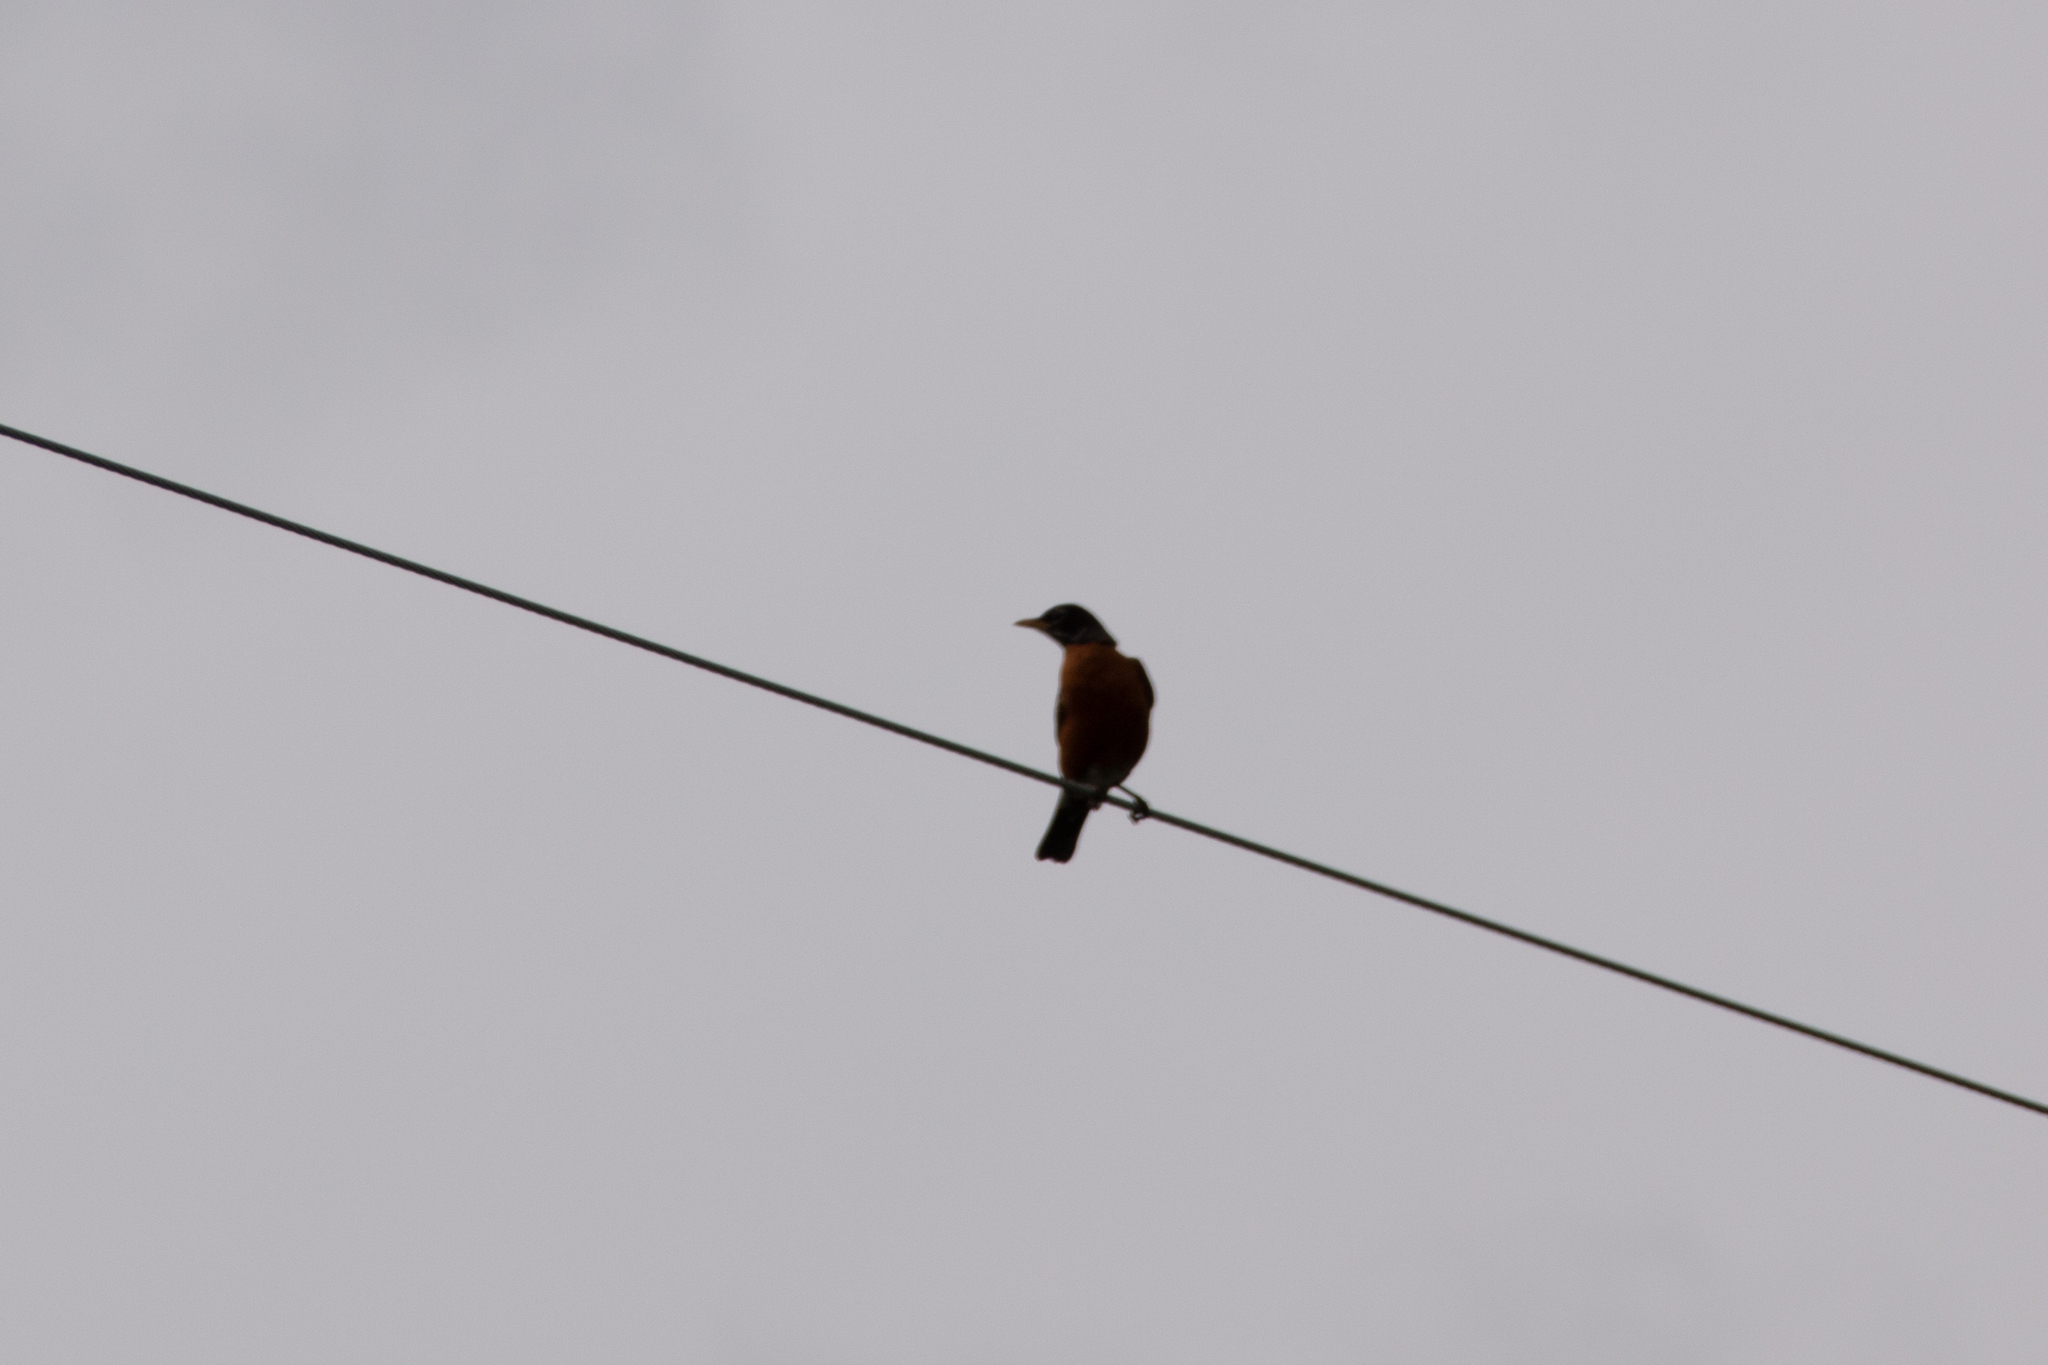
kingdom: Animalia
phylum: Chordata
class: Aves
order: Passeriformes
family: Turdidae
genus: Turdus
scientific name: Turdus migratorius
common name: American robin
